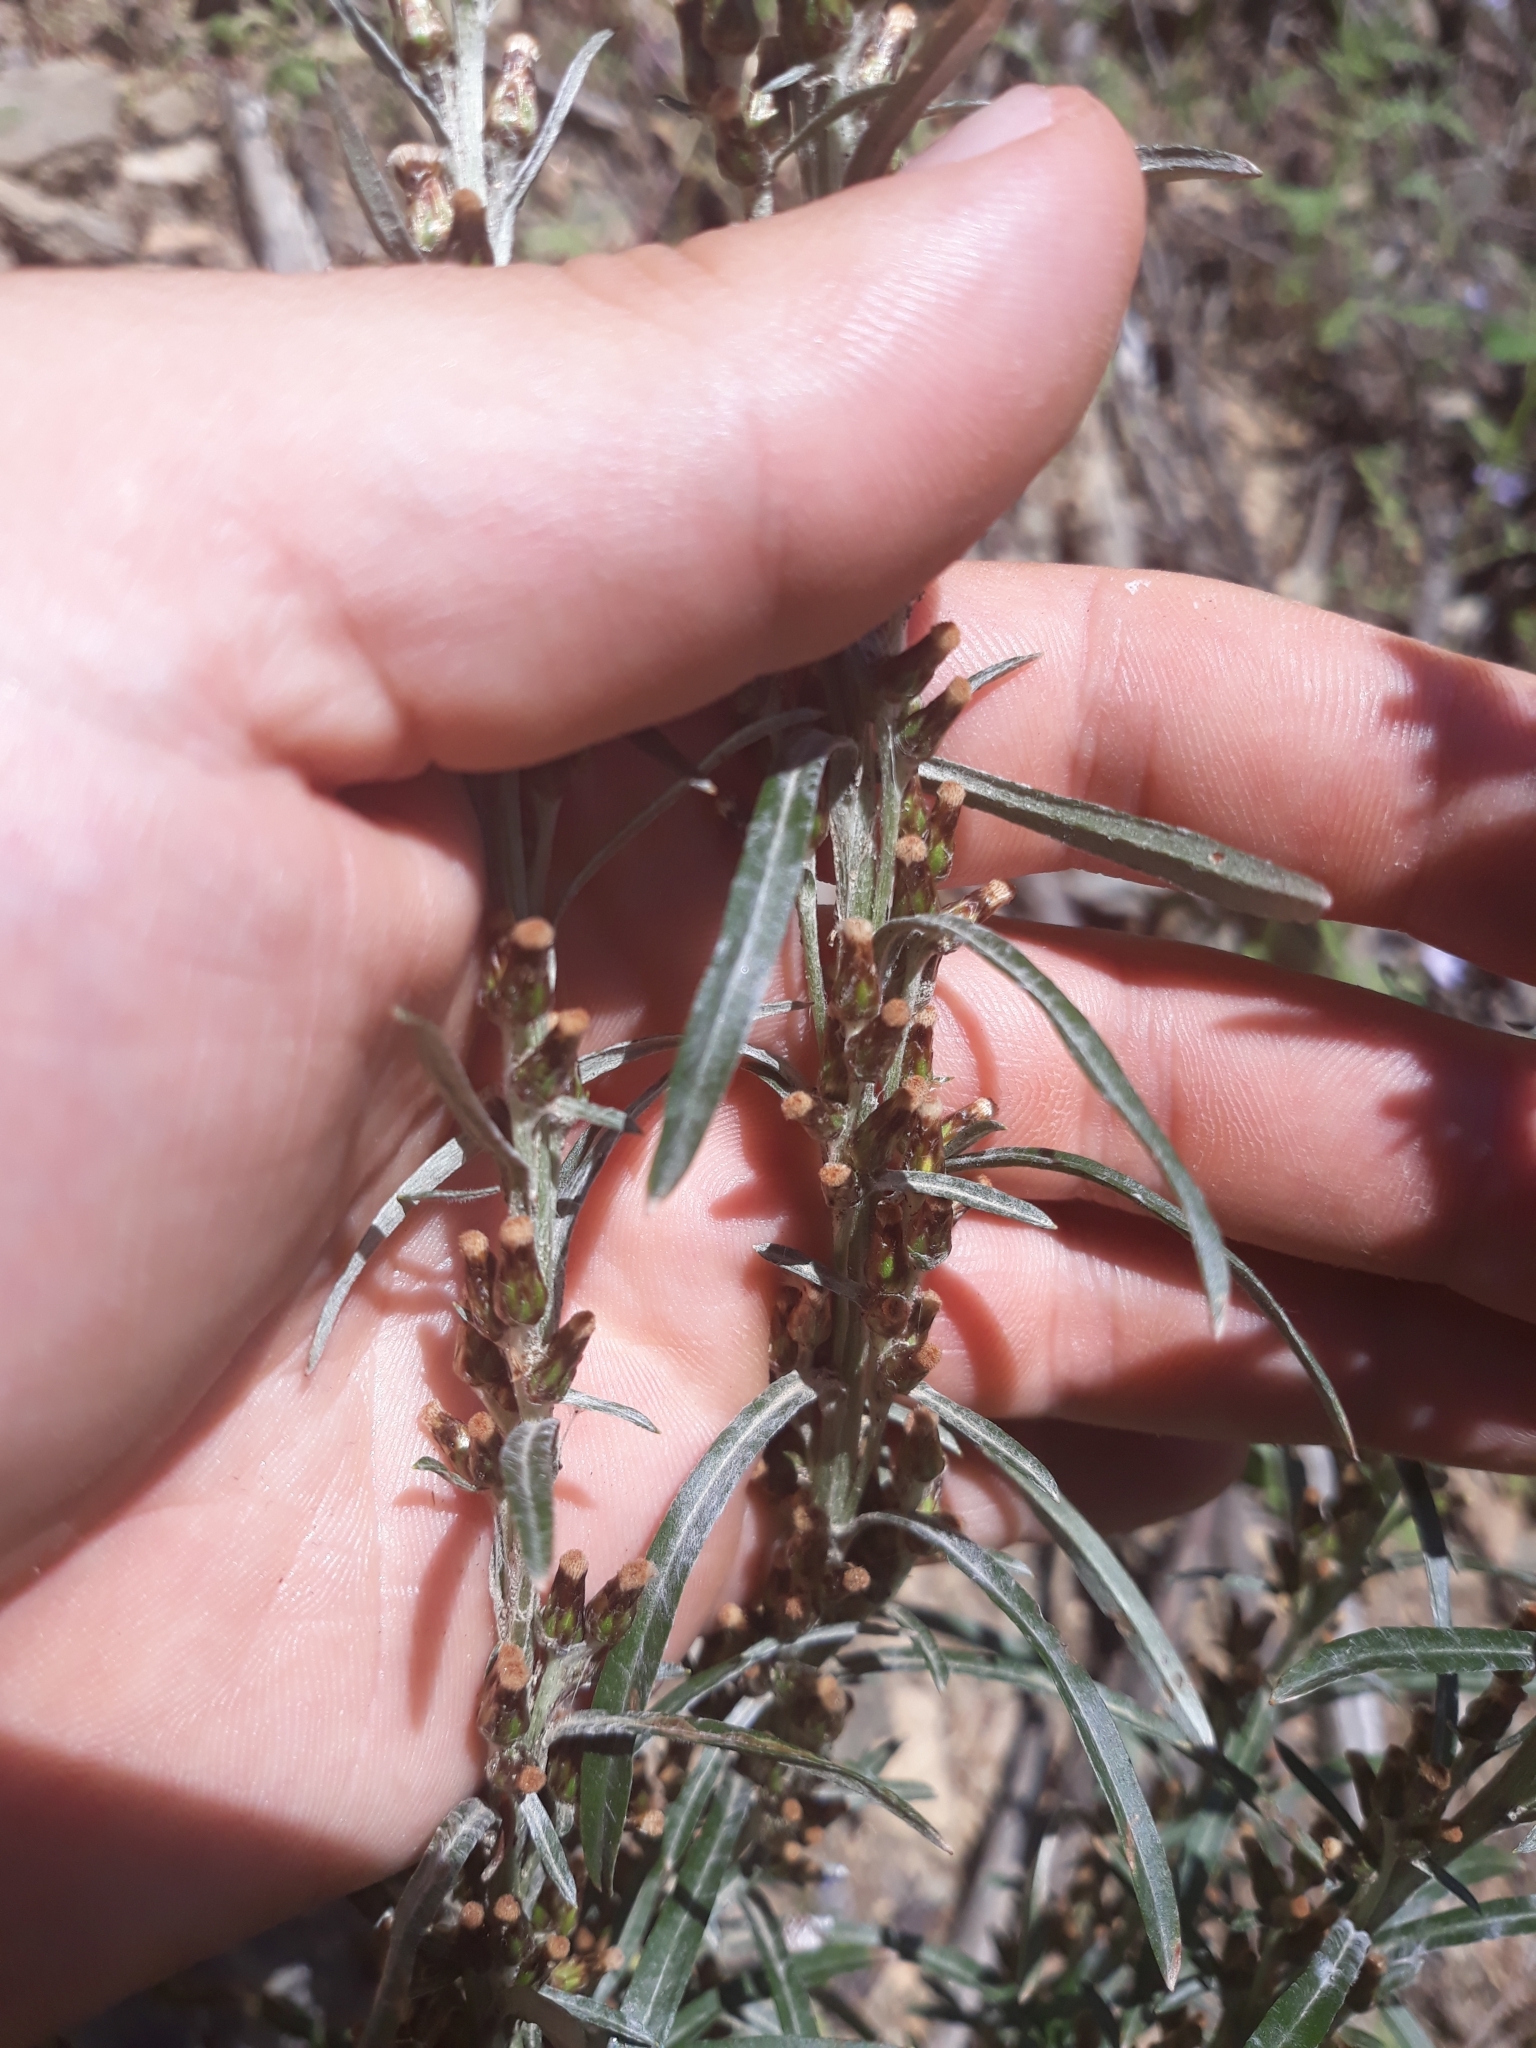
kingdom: Plantae
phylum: Tracheophyta
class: Magnoliopsida
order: Asterales
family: Asteraceae
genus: Omalotheca
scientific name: Omalotheca sylvatica
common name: Heath cudweed
